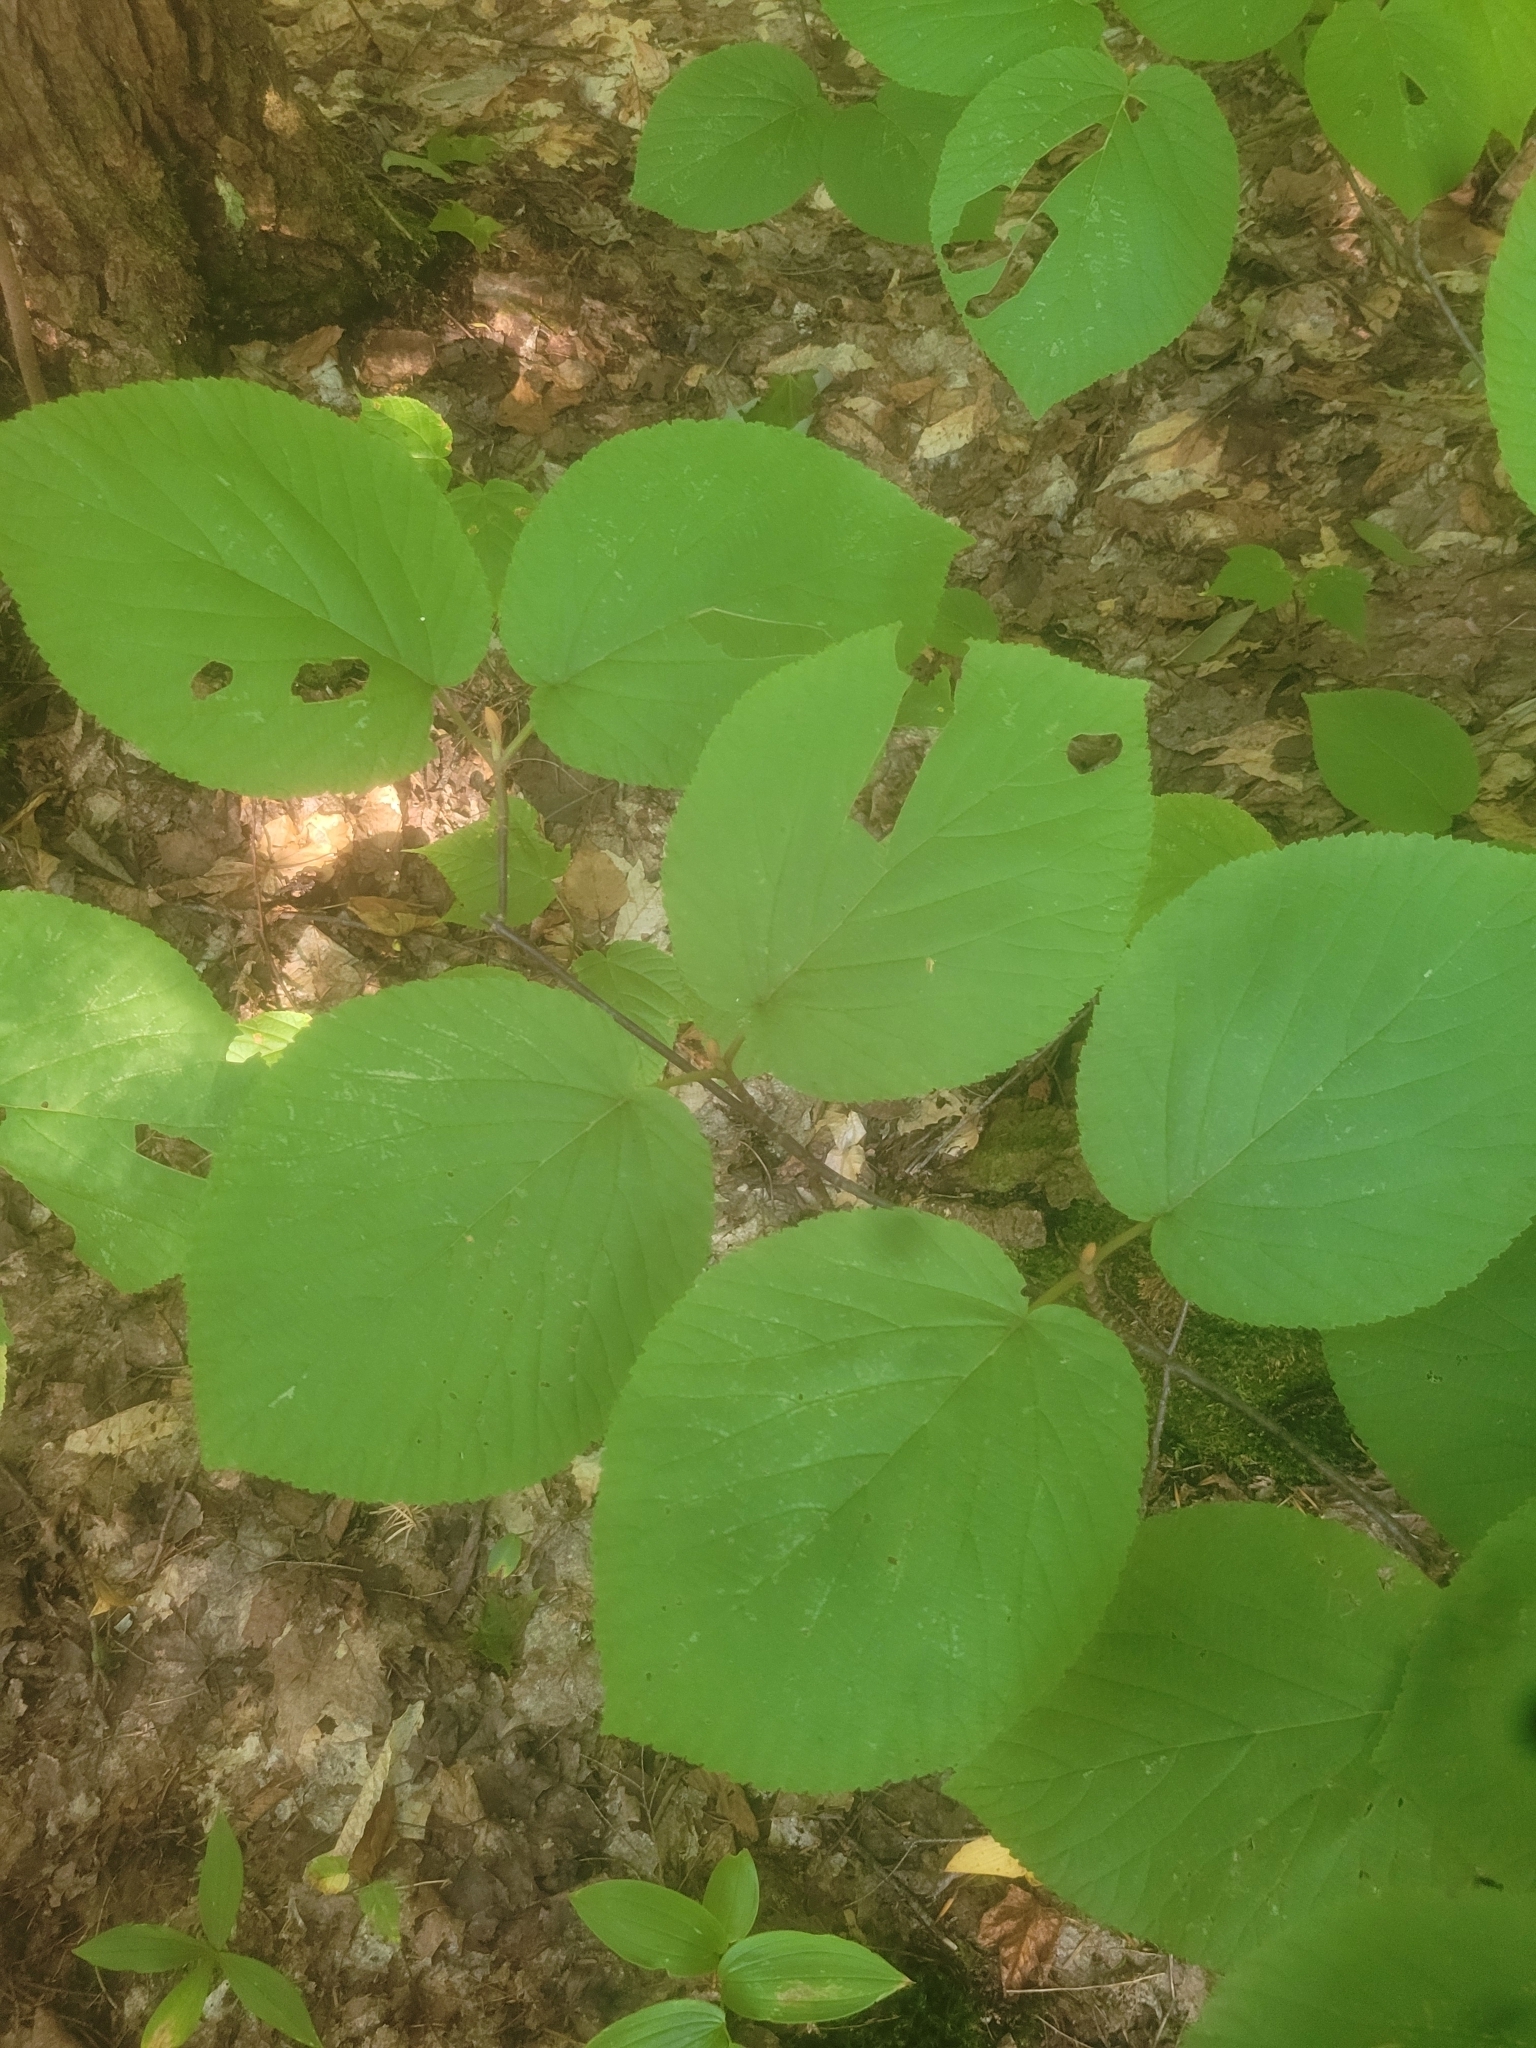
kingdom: Plantae
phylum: Tracheophyta
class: Magnoliopsida
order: Dipsacales
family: Viburnaceae
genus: Viburnum
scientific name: Viburnum lantanoides
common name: Hobblebush
